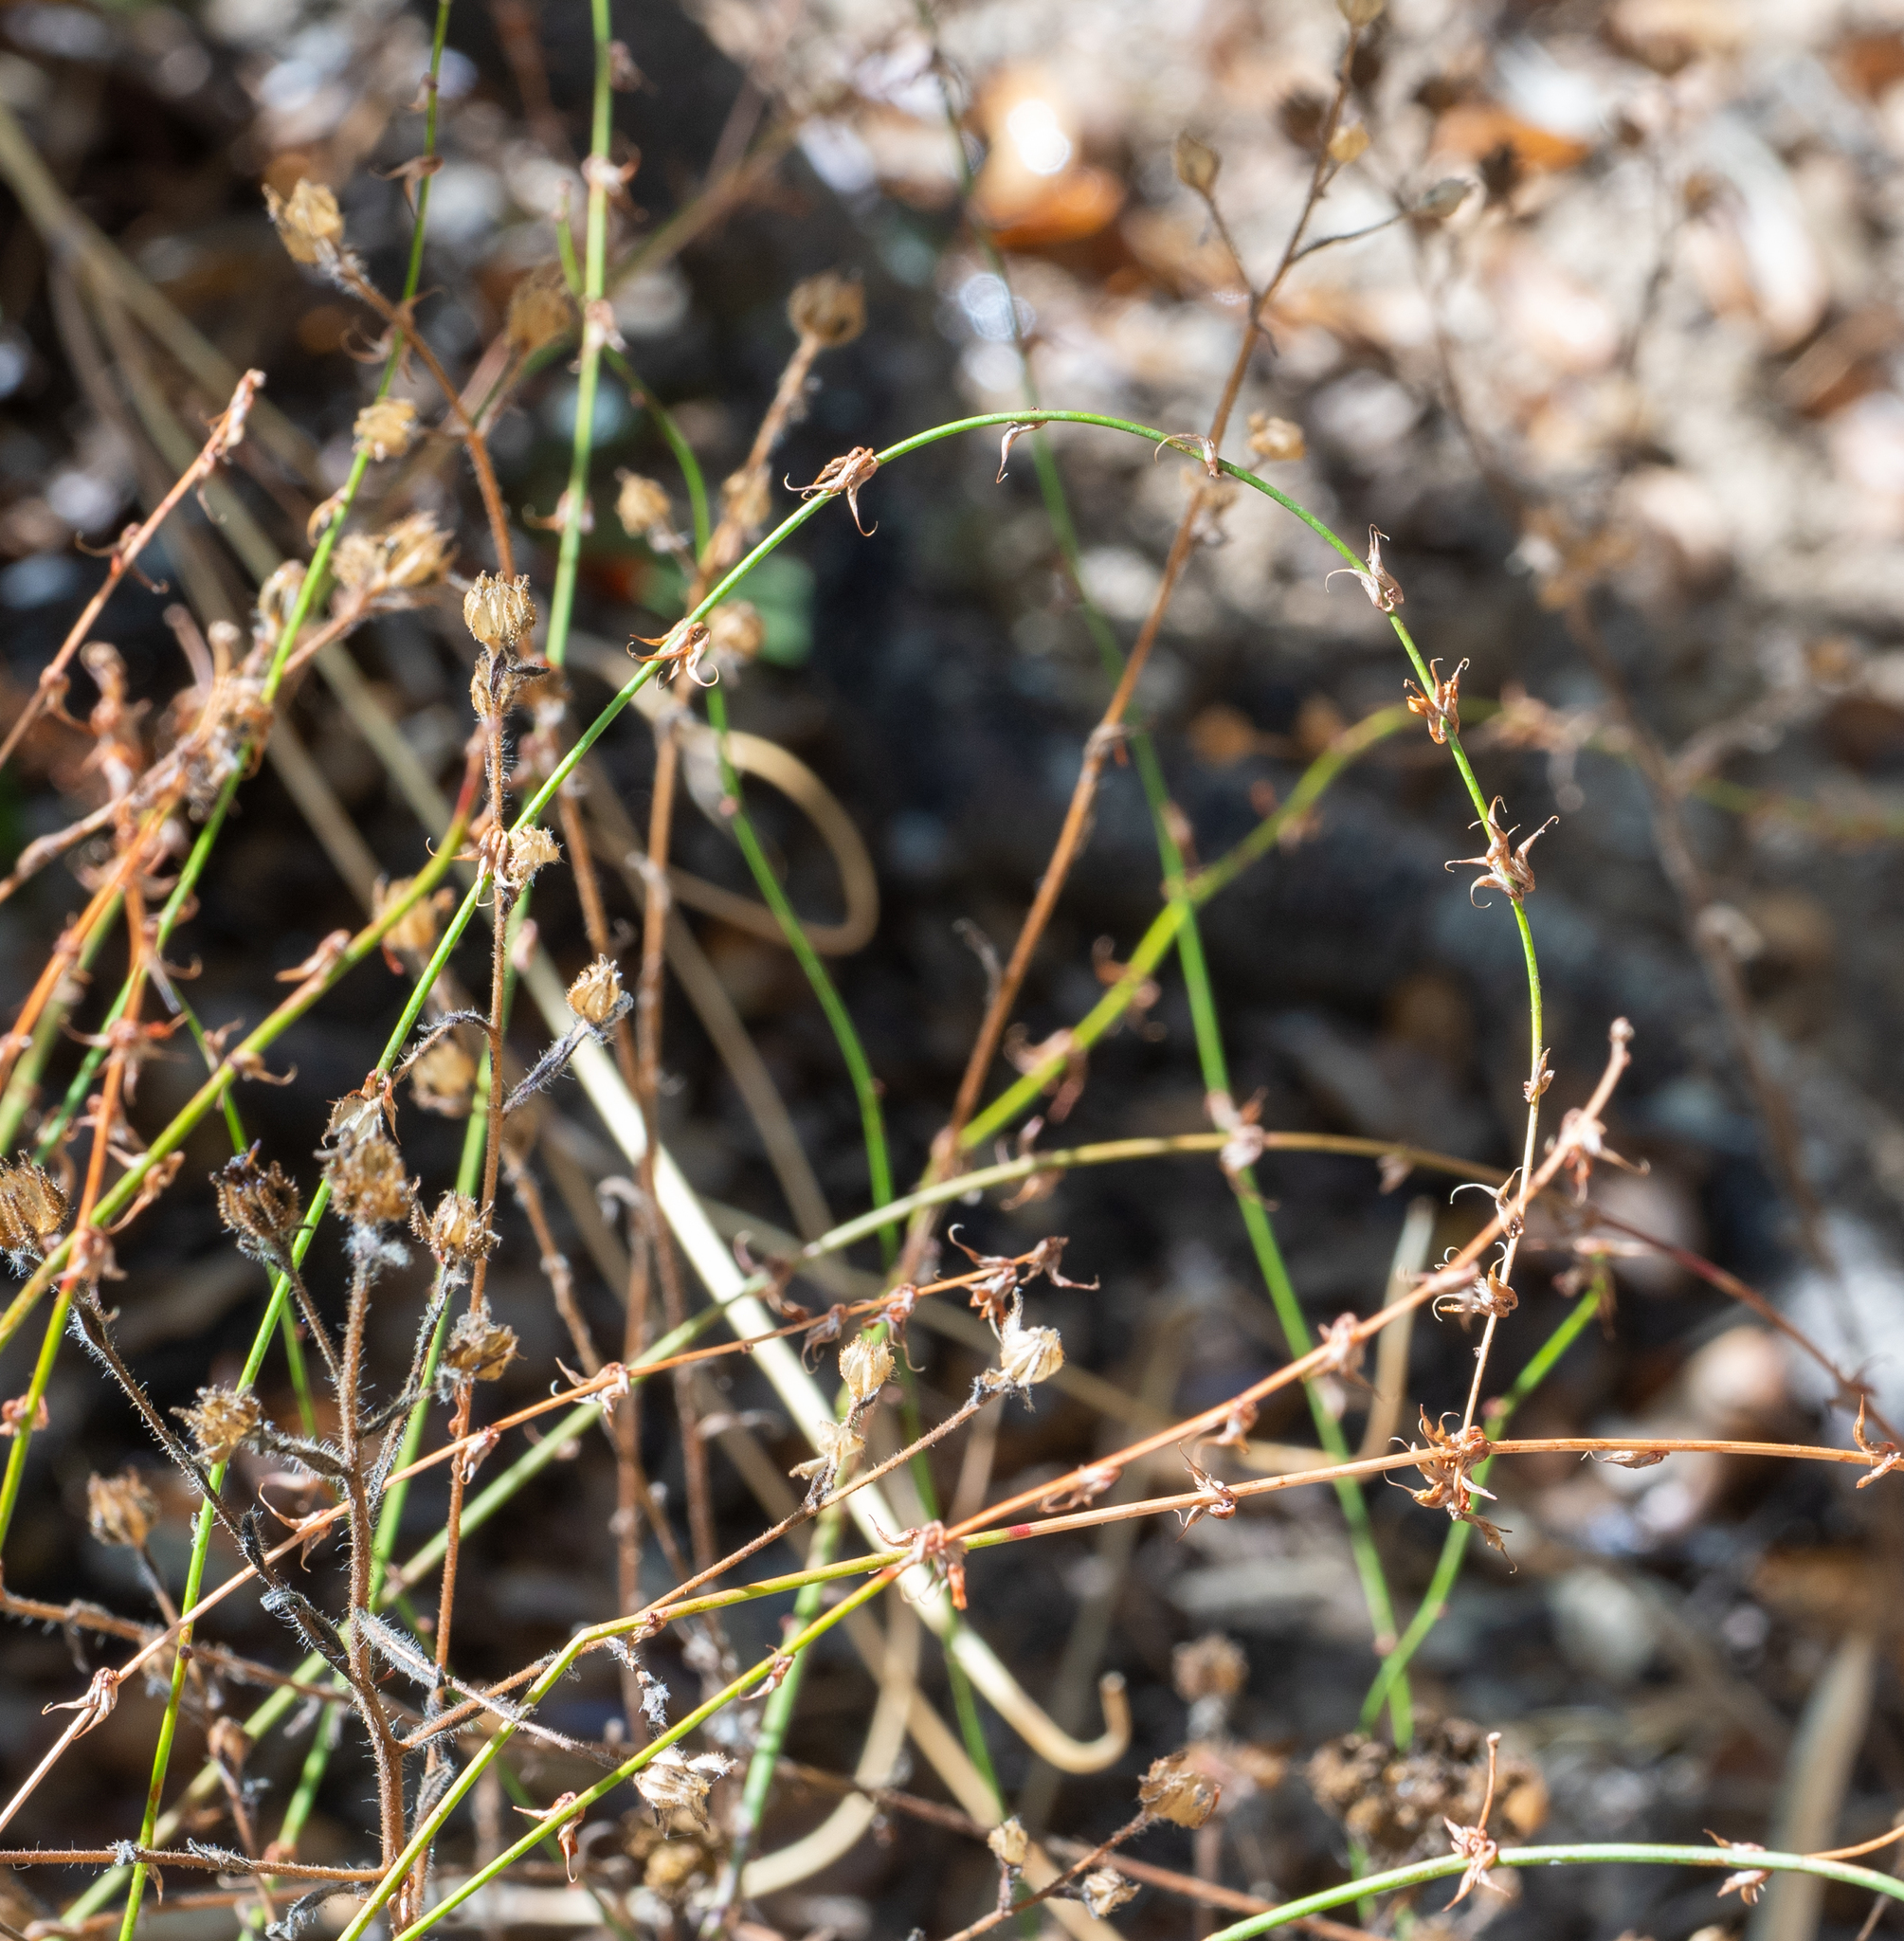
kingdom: Plantae
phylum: Tracheophyta
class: Magnoliopsida
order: Fabales
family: Fabaceae
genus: Acmispon
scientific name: Acmispon glaber
